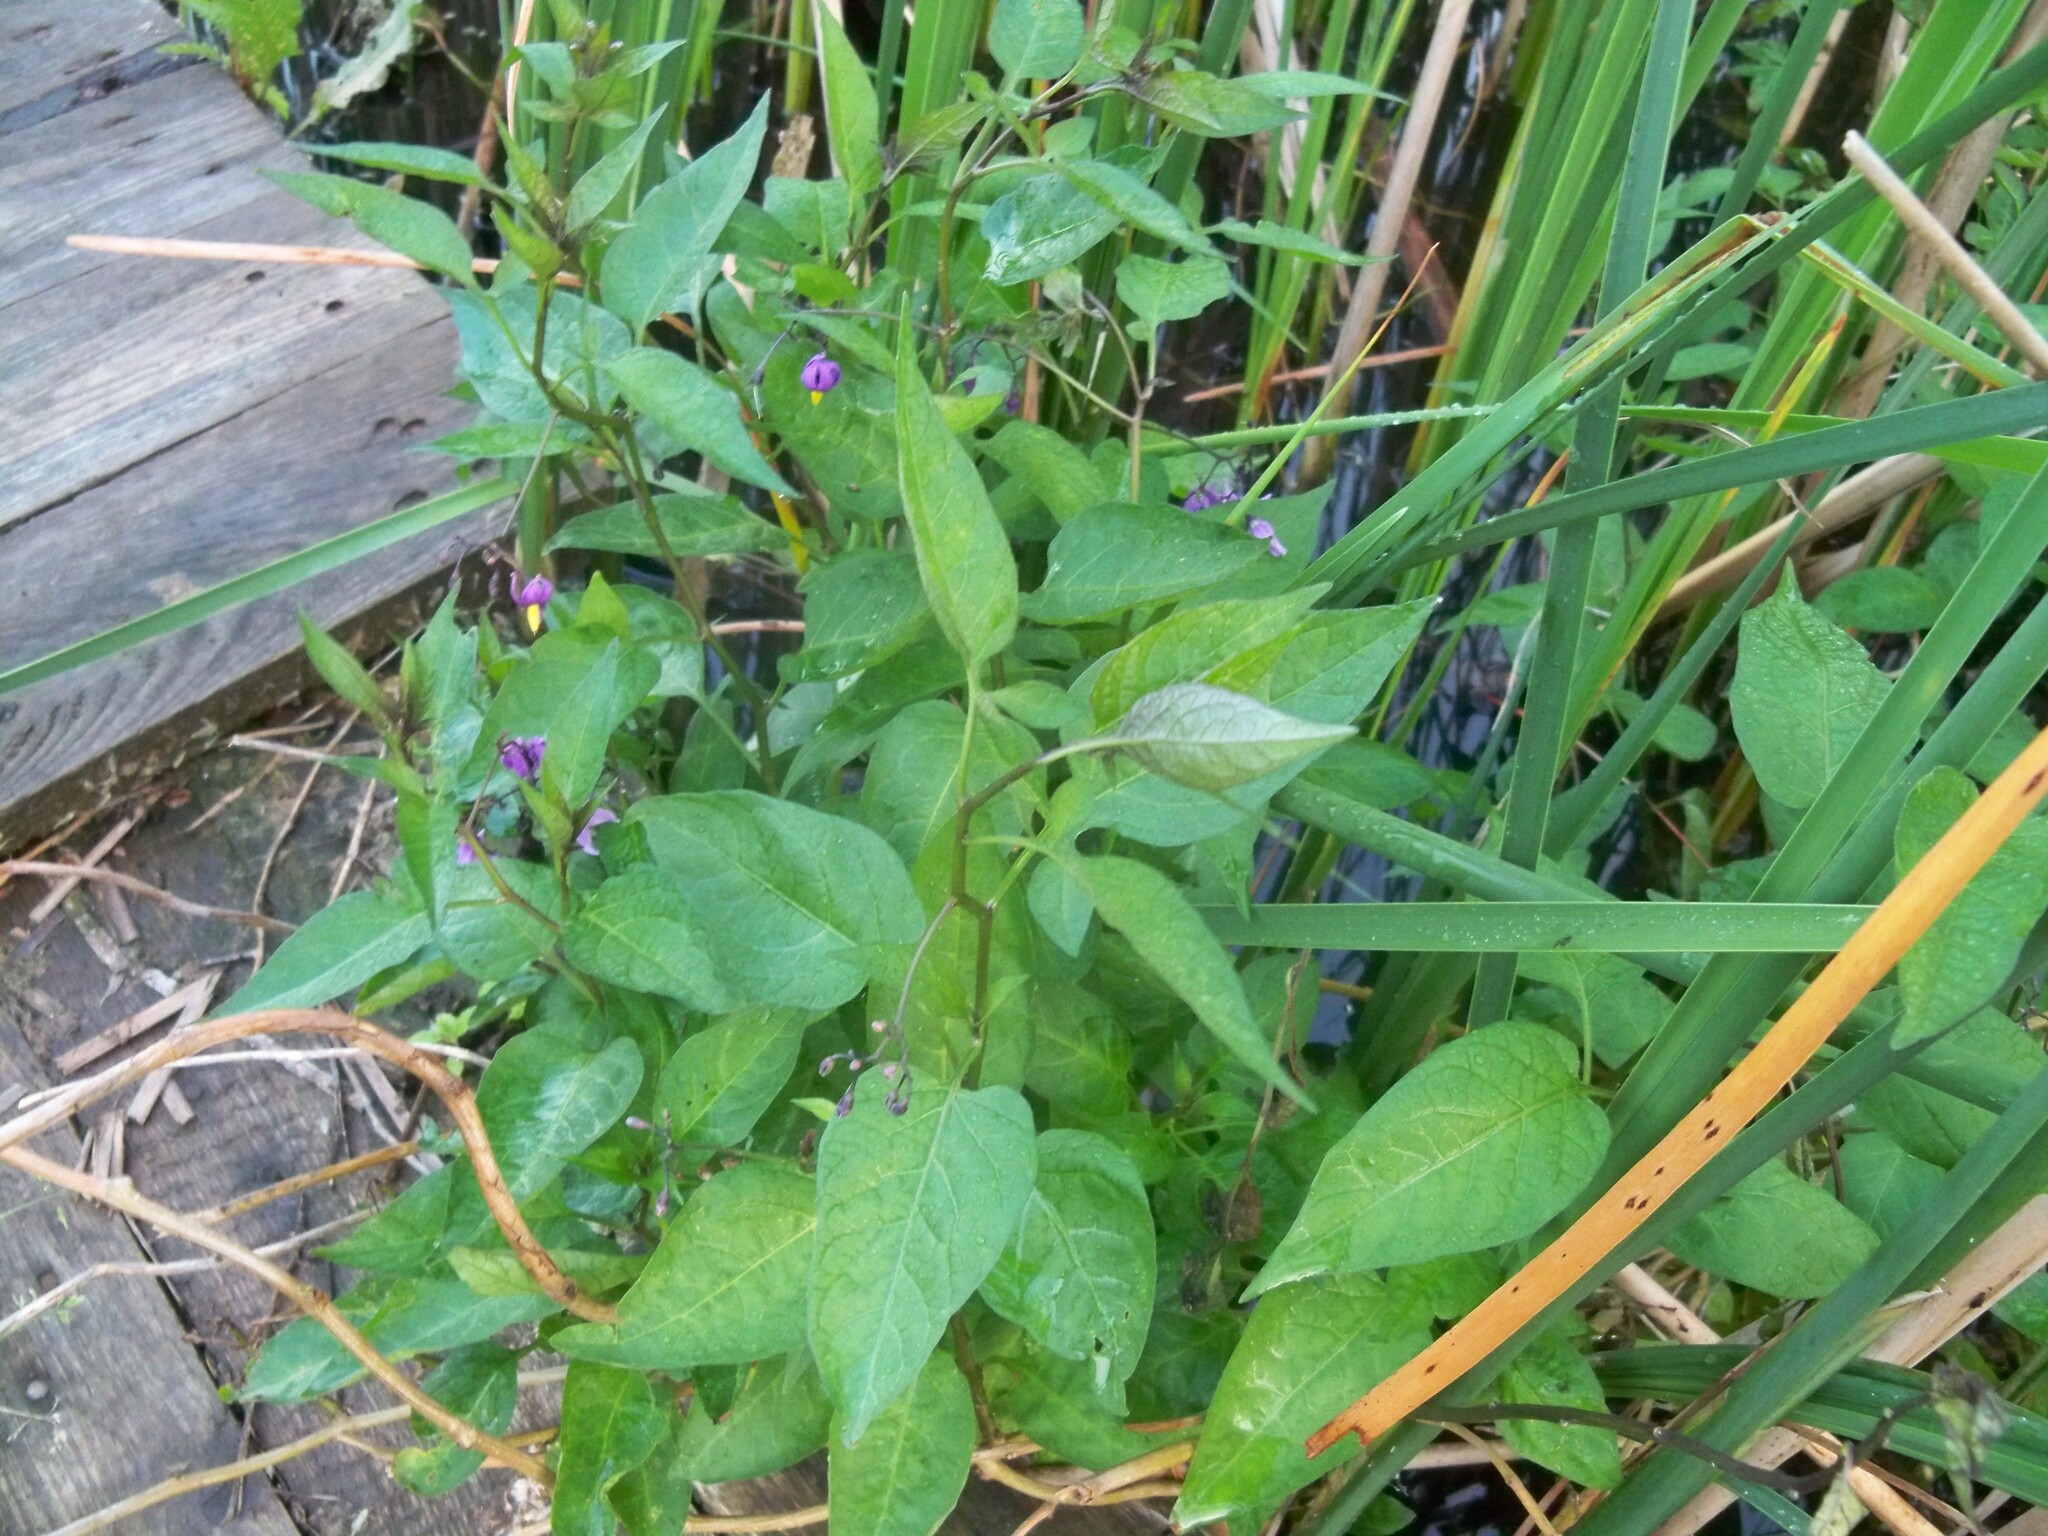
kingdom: Plantae
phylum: Tracheophyta
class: Magnoliopsida
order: Solanales
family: Solanaceae
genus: Solanum
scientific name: Solanum dulcamara
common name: Climbing nightshade
